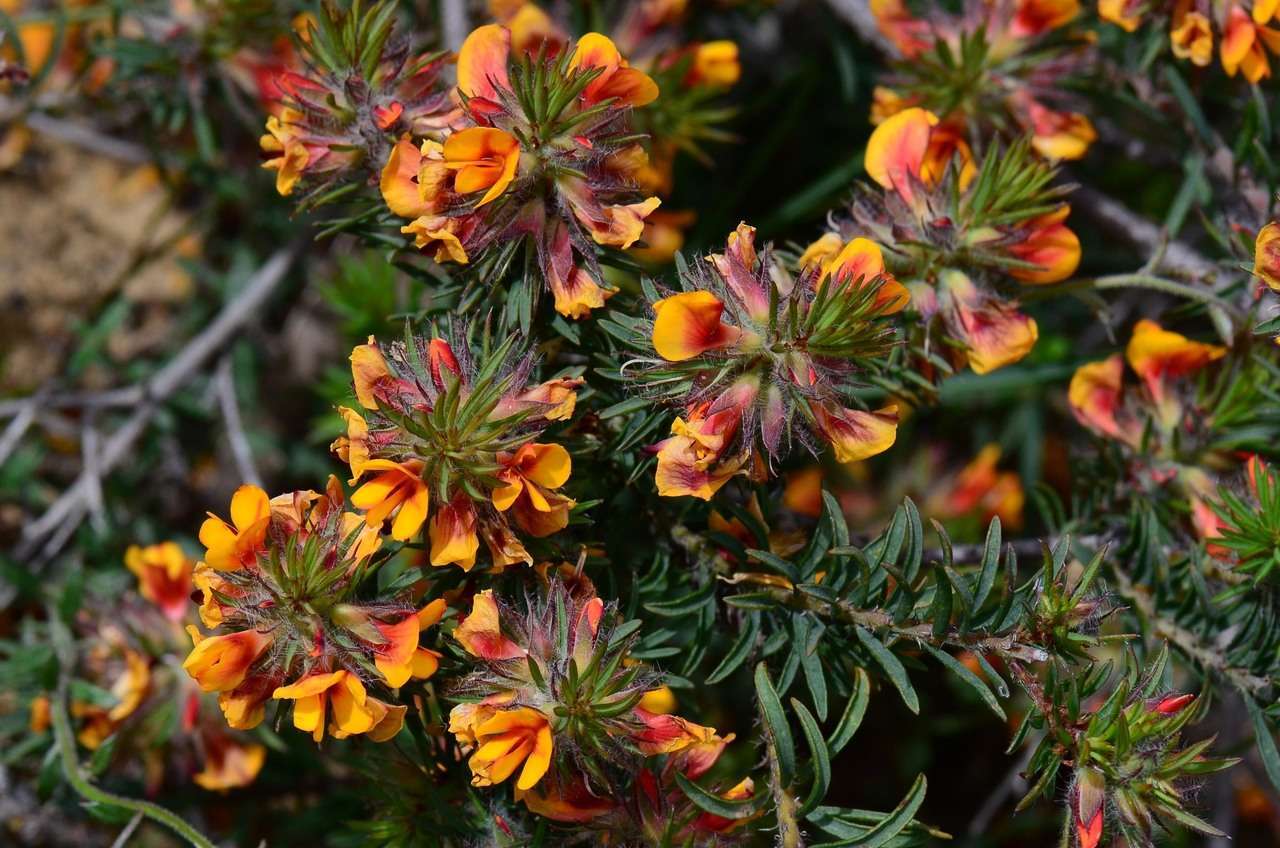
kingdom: Plantae
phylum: Tracheophyta
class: Magnoliopsida
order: Fabales
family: Fabaceae
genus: Pultenaea
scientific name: Pultenaea humilis
